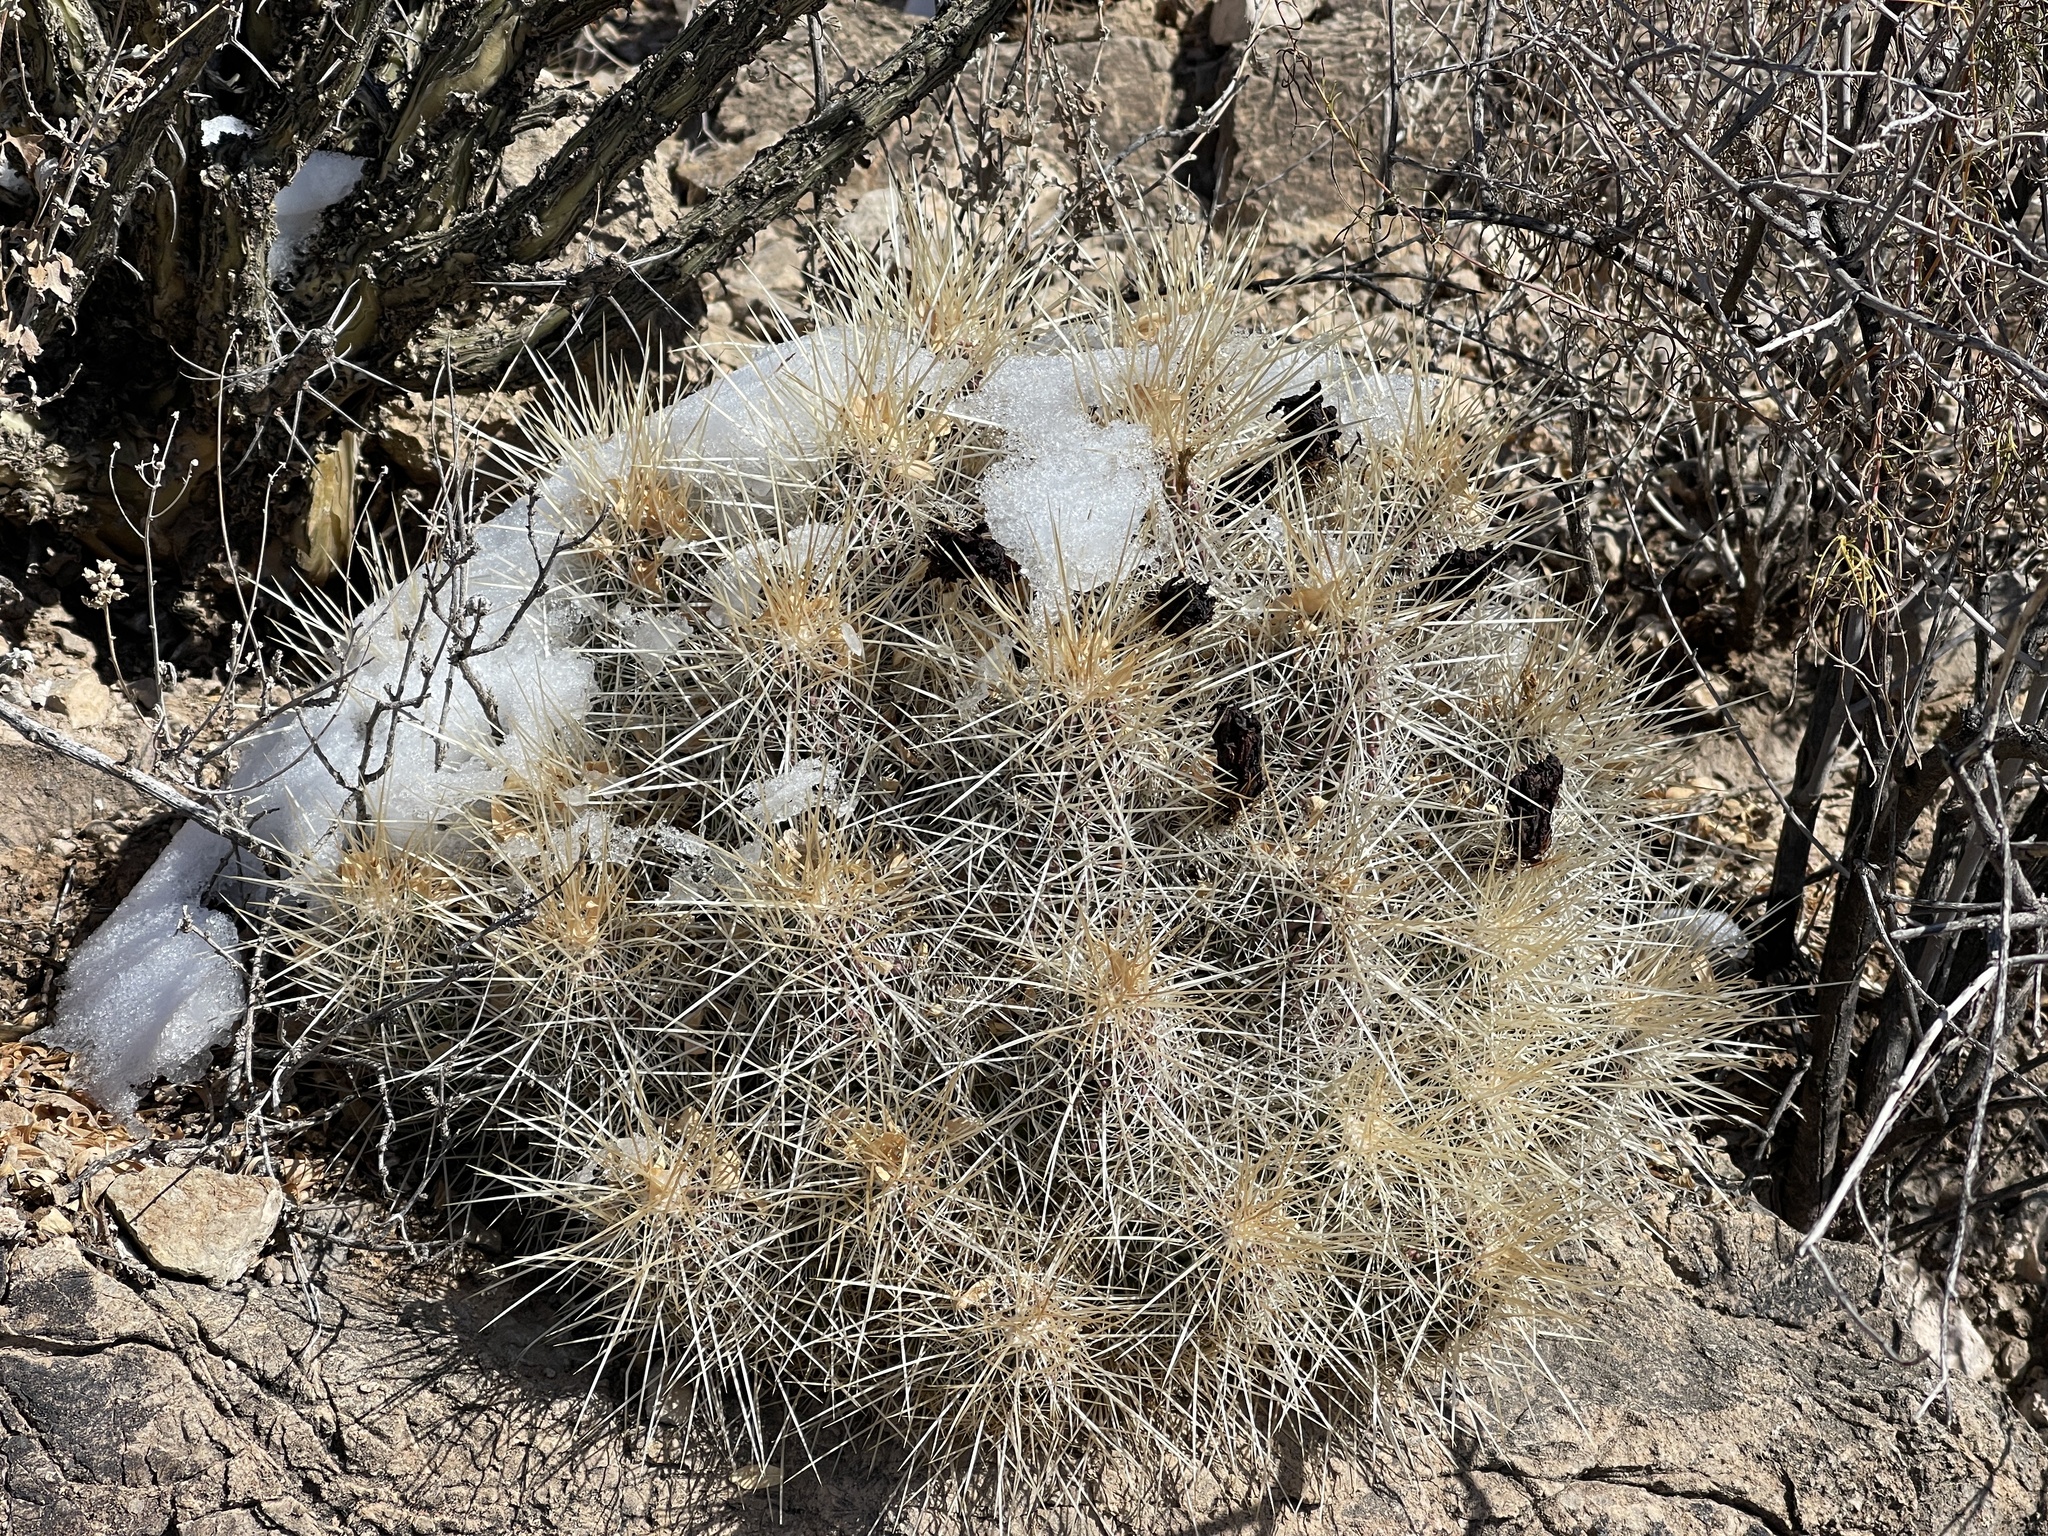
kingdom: Plantae
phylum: Tracheophyta
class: Magnoliopsida
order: Caryophyllales
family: Cactaceae
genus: Echinocereus
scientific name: Echinocereus stramineus
